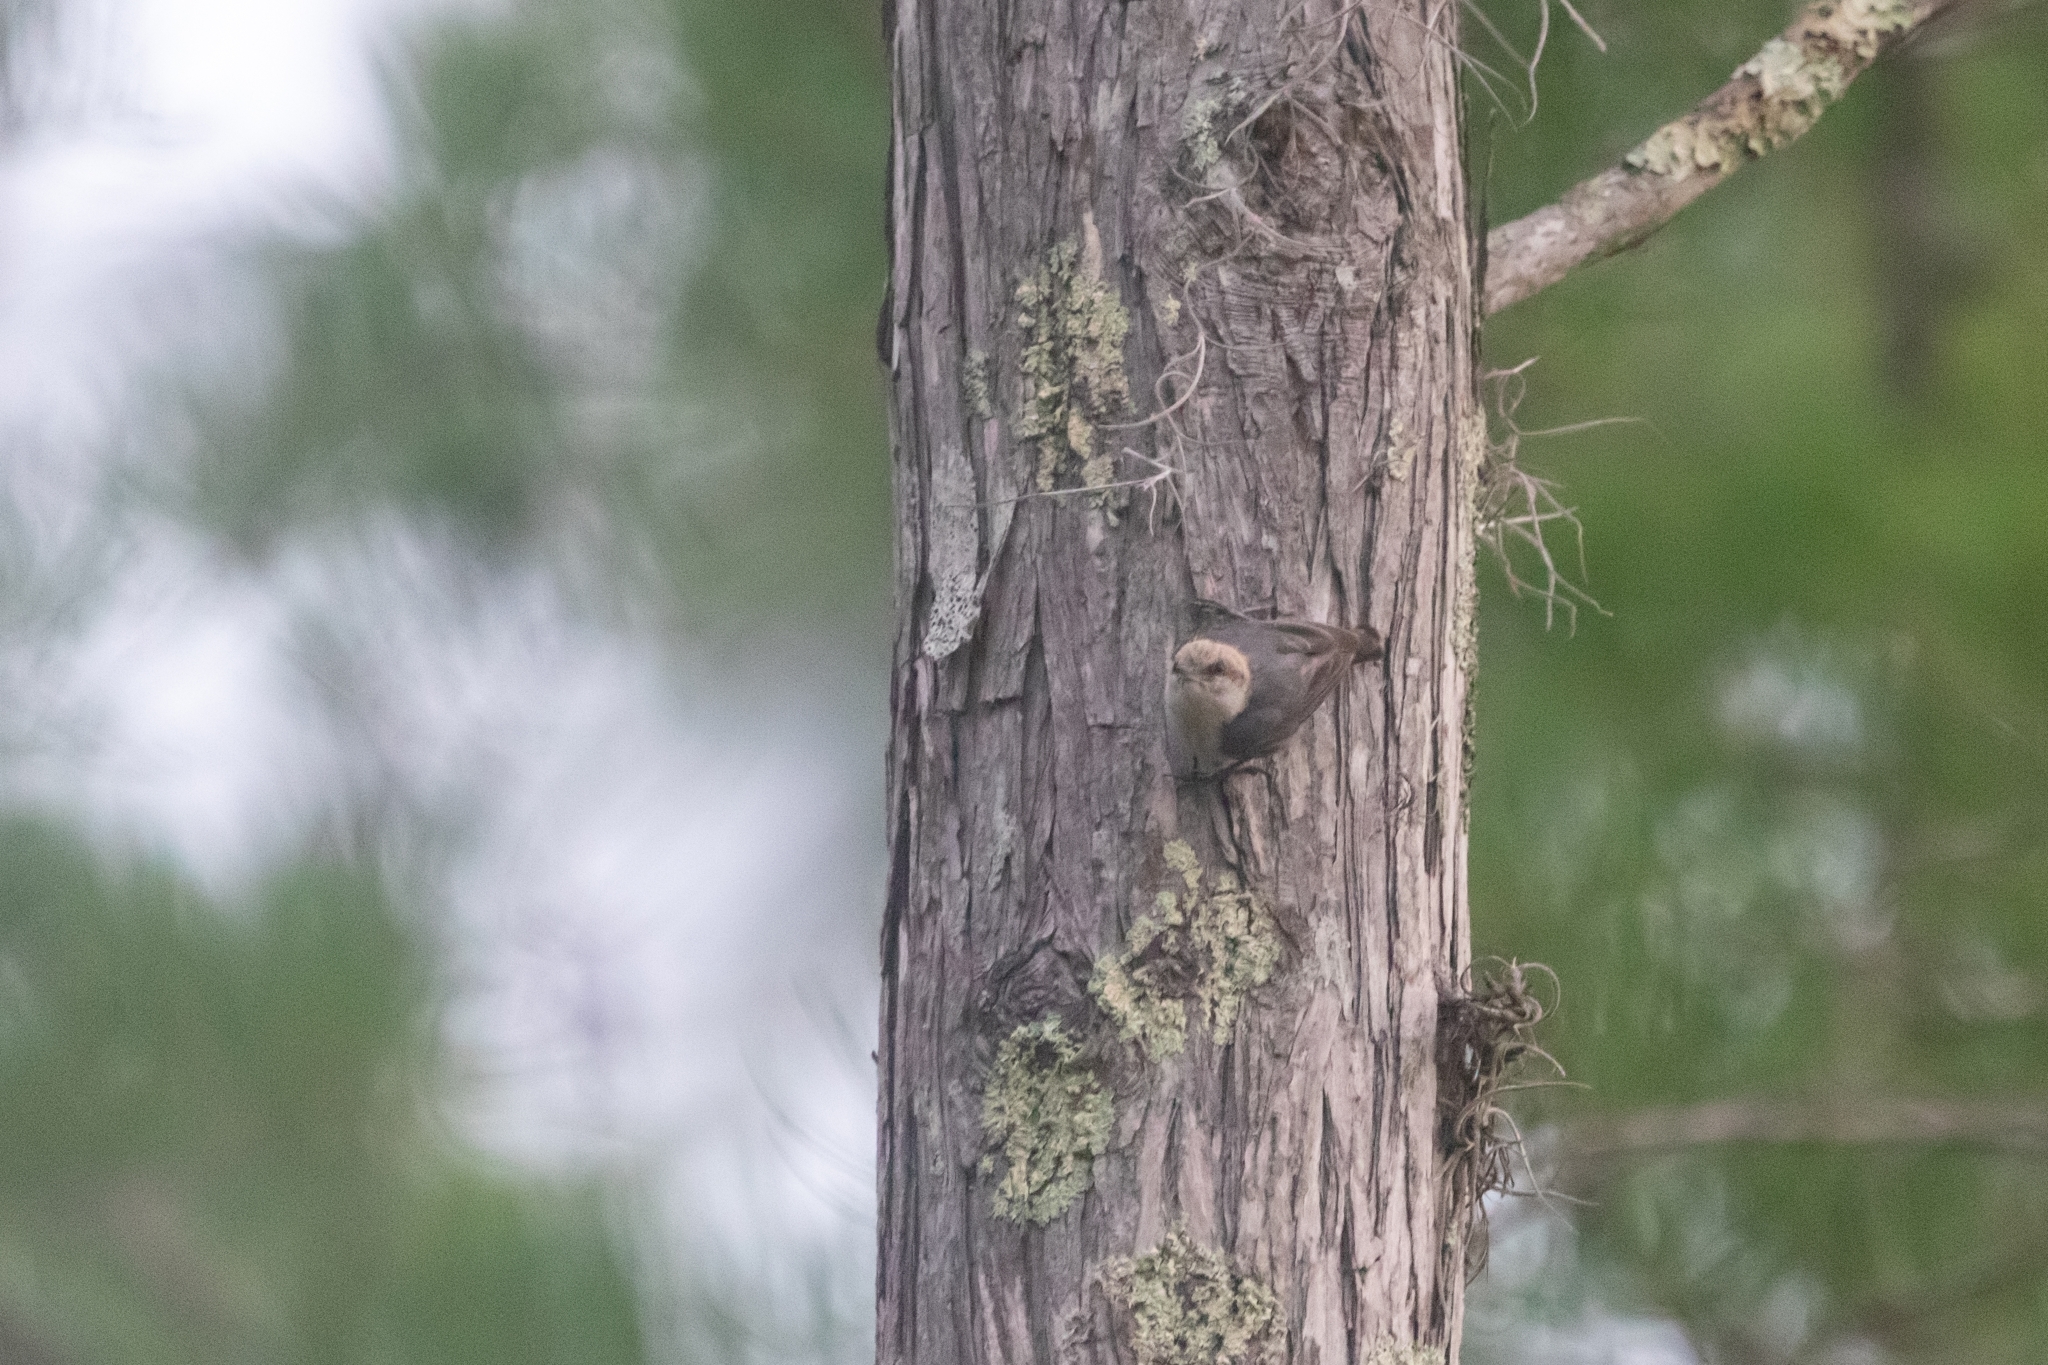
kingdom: Animalia
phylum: Chordata
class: Aves
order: Passeriformes
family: Sittidae
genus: Sitta
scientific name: Sitta pusilla
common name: Brown-headed nuthatch
